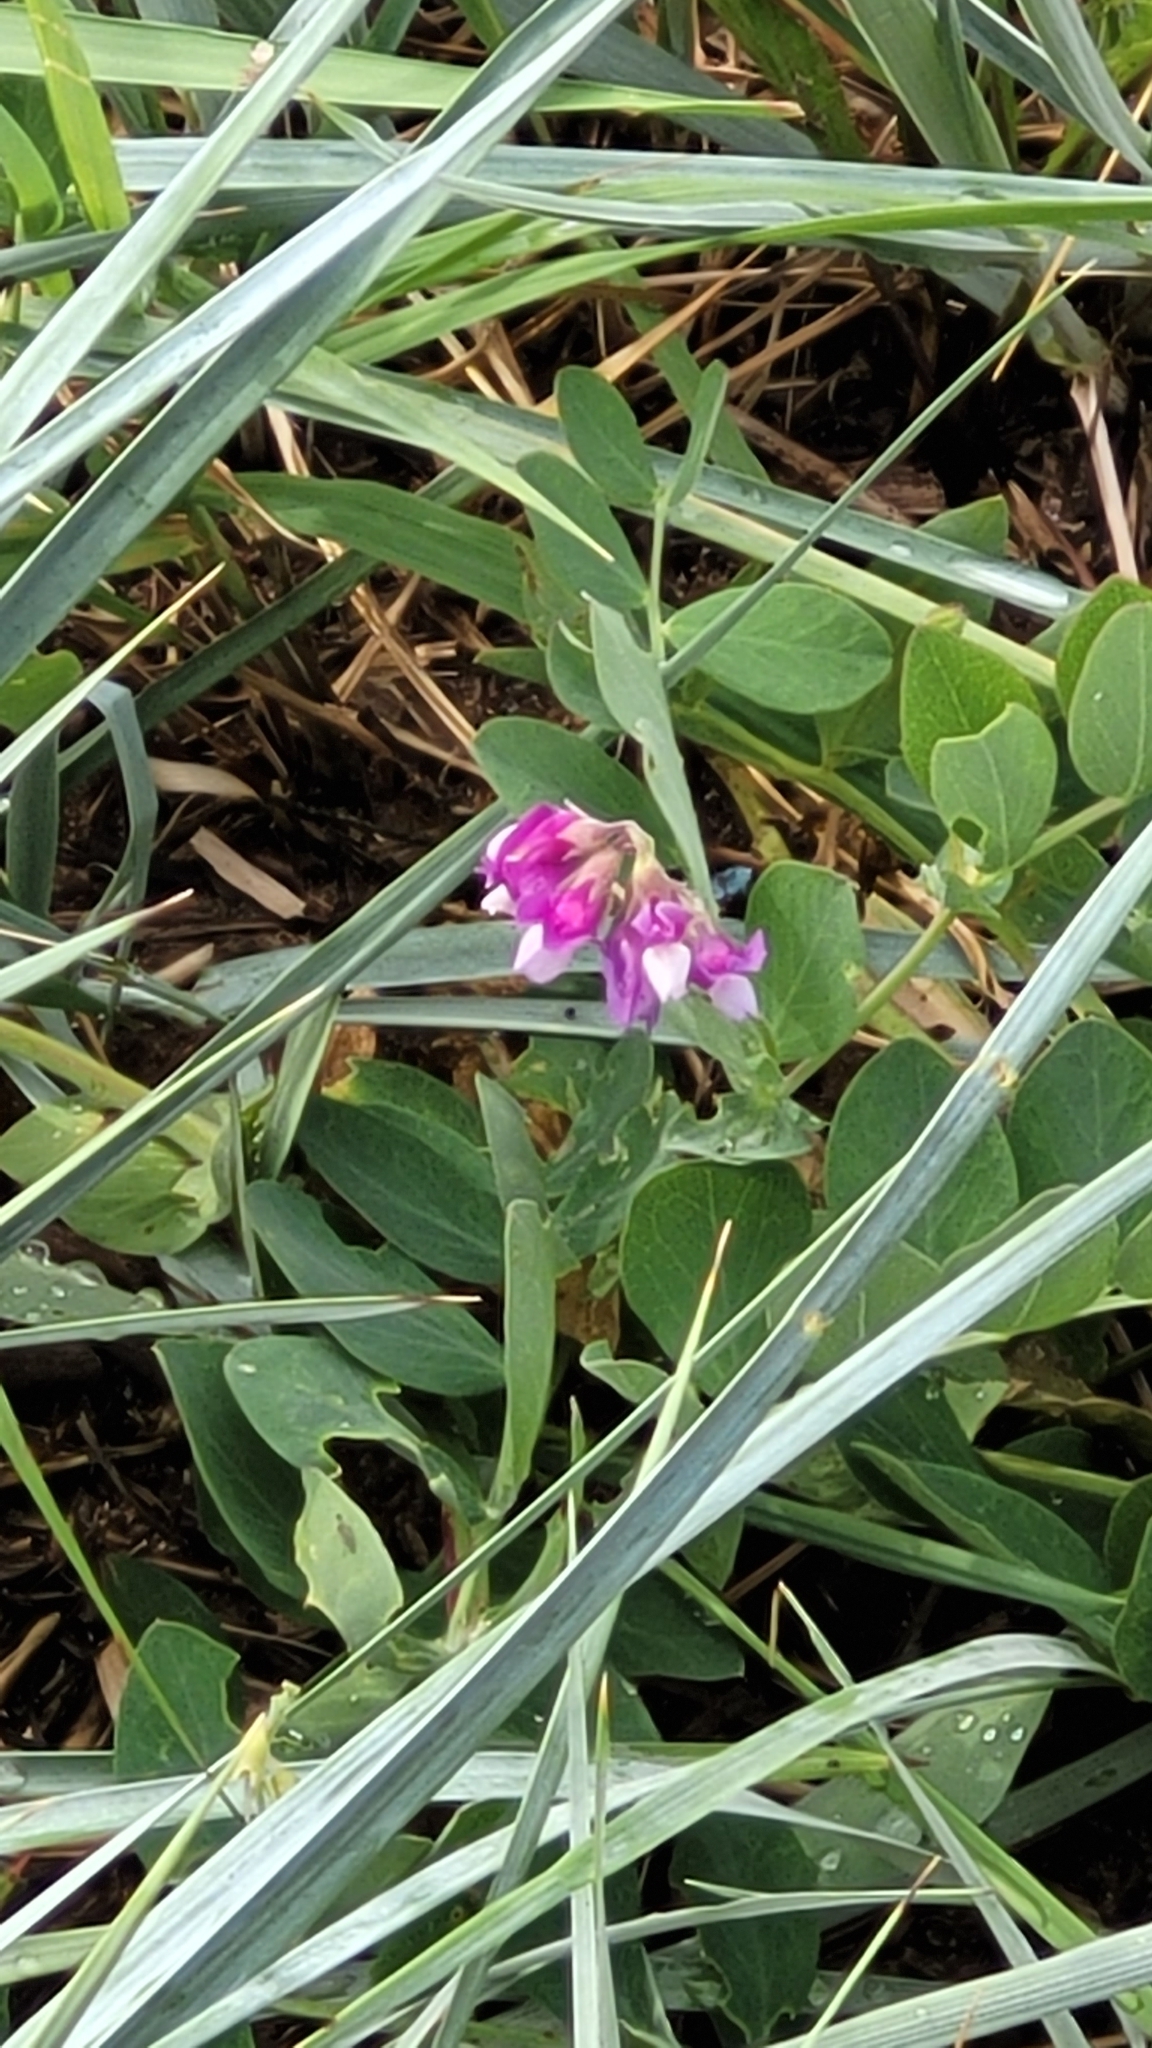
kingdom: Plantae
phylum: Tracheophyta
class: Magnoliopsida
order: Fabales
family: Fabaceae
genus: Lathyrus
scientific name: Lathyrus japonicus
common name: Sea pea
